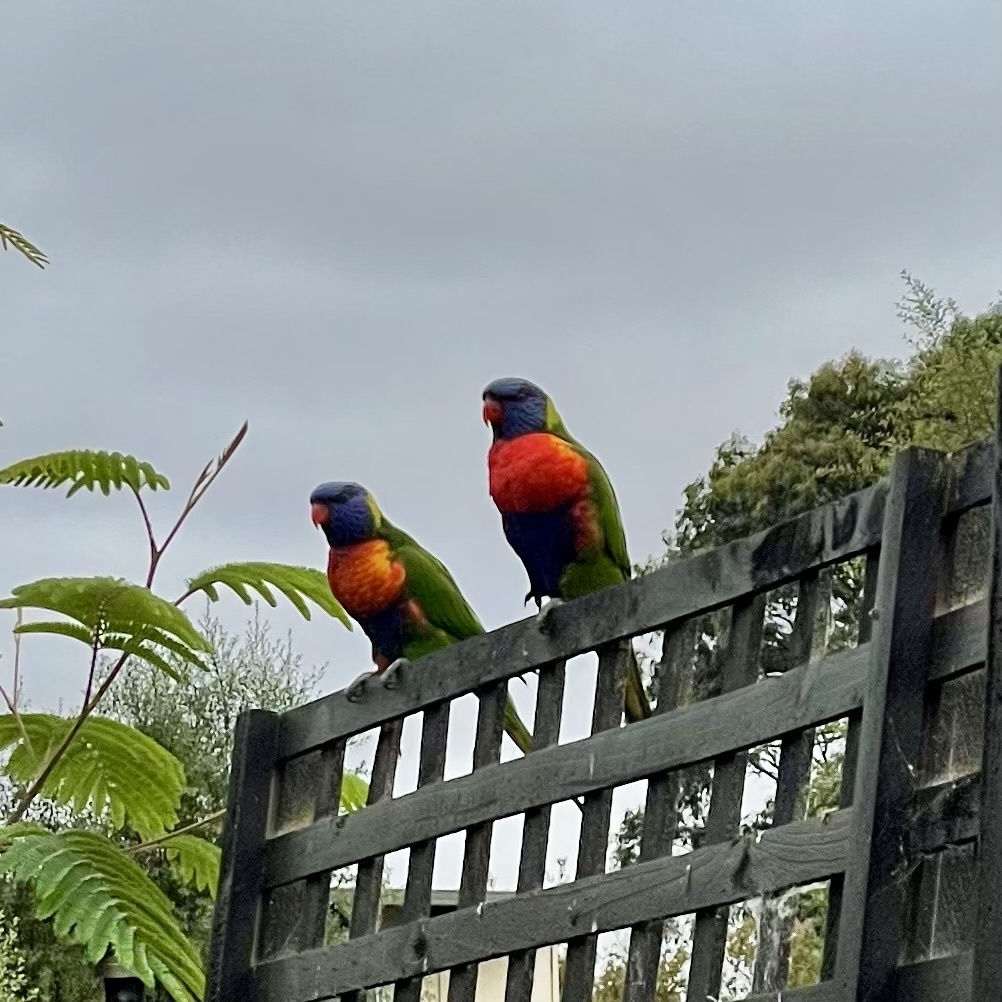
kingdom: Animalia
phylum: Chordata
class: Aves
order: Psittaciformes
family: Psittacidae
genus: Trichoglossus
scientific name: Trichoglossus haematodus
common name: Coconut lorikeet
